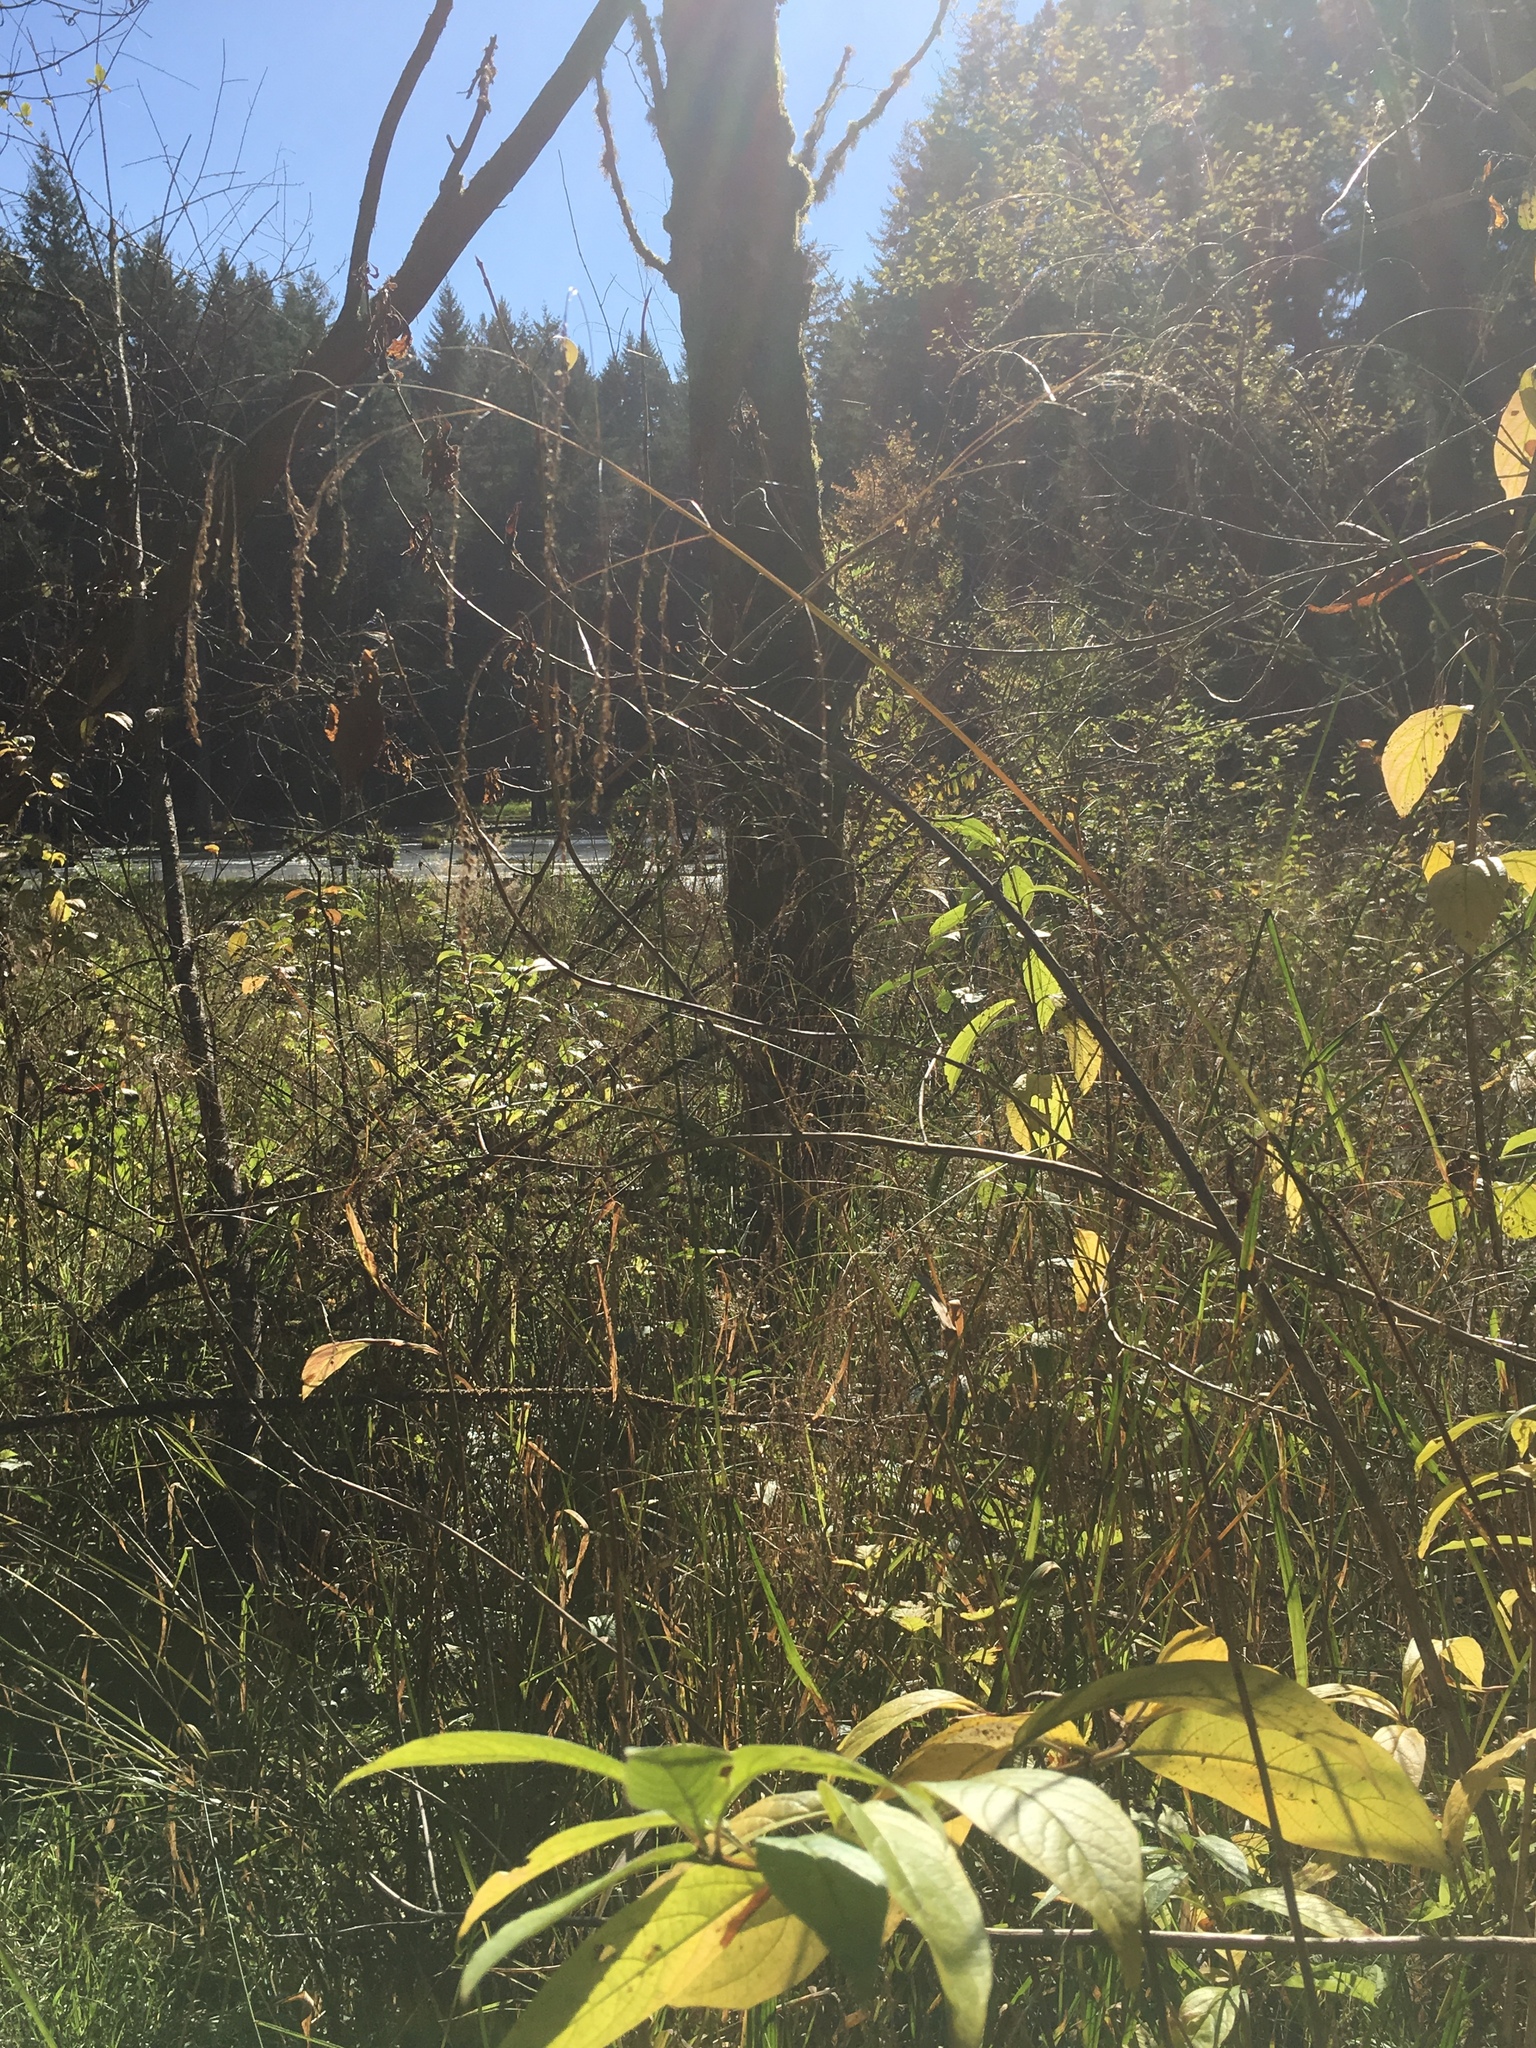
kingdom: Plantae
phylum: Tracheophyta
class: Liliopsida
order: Poales
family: Poaceae
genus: Glyceria
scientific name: Glyceria elata
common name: Tall mannagrass
